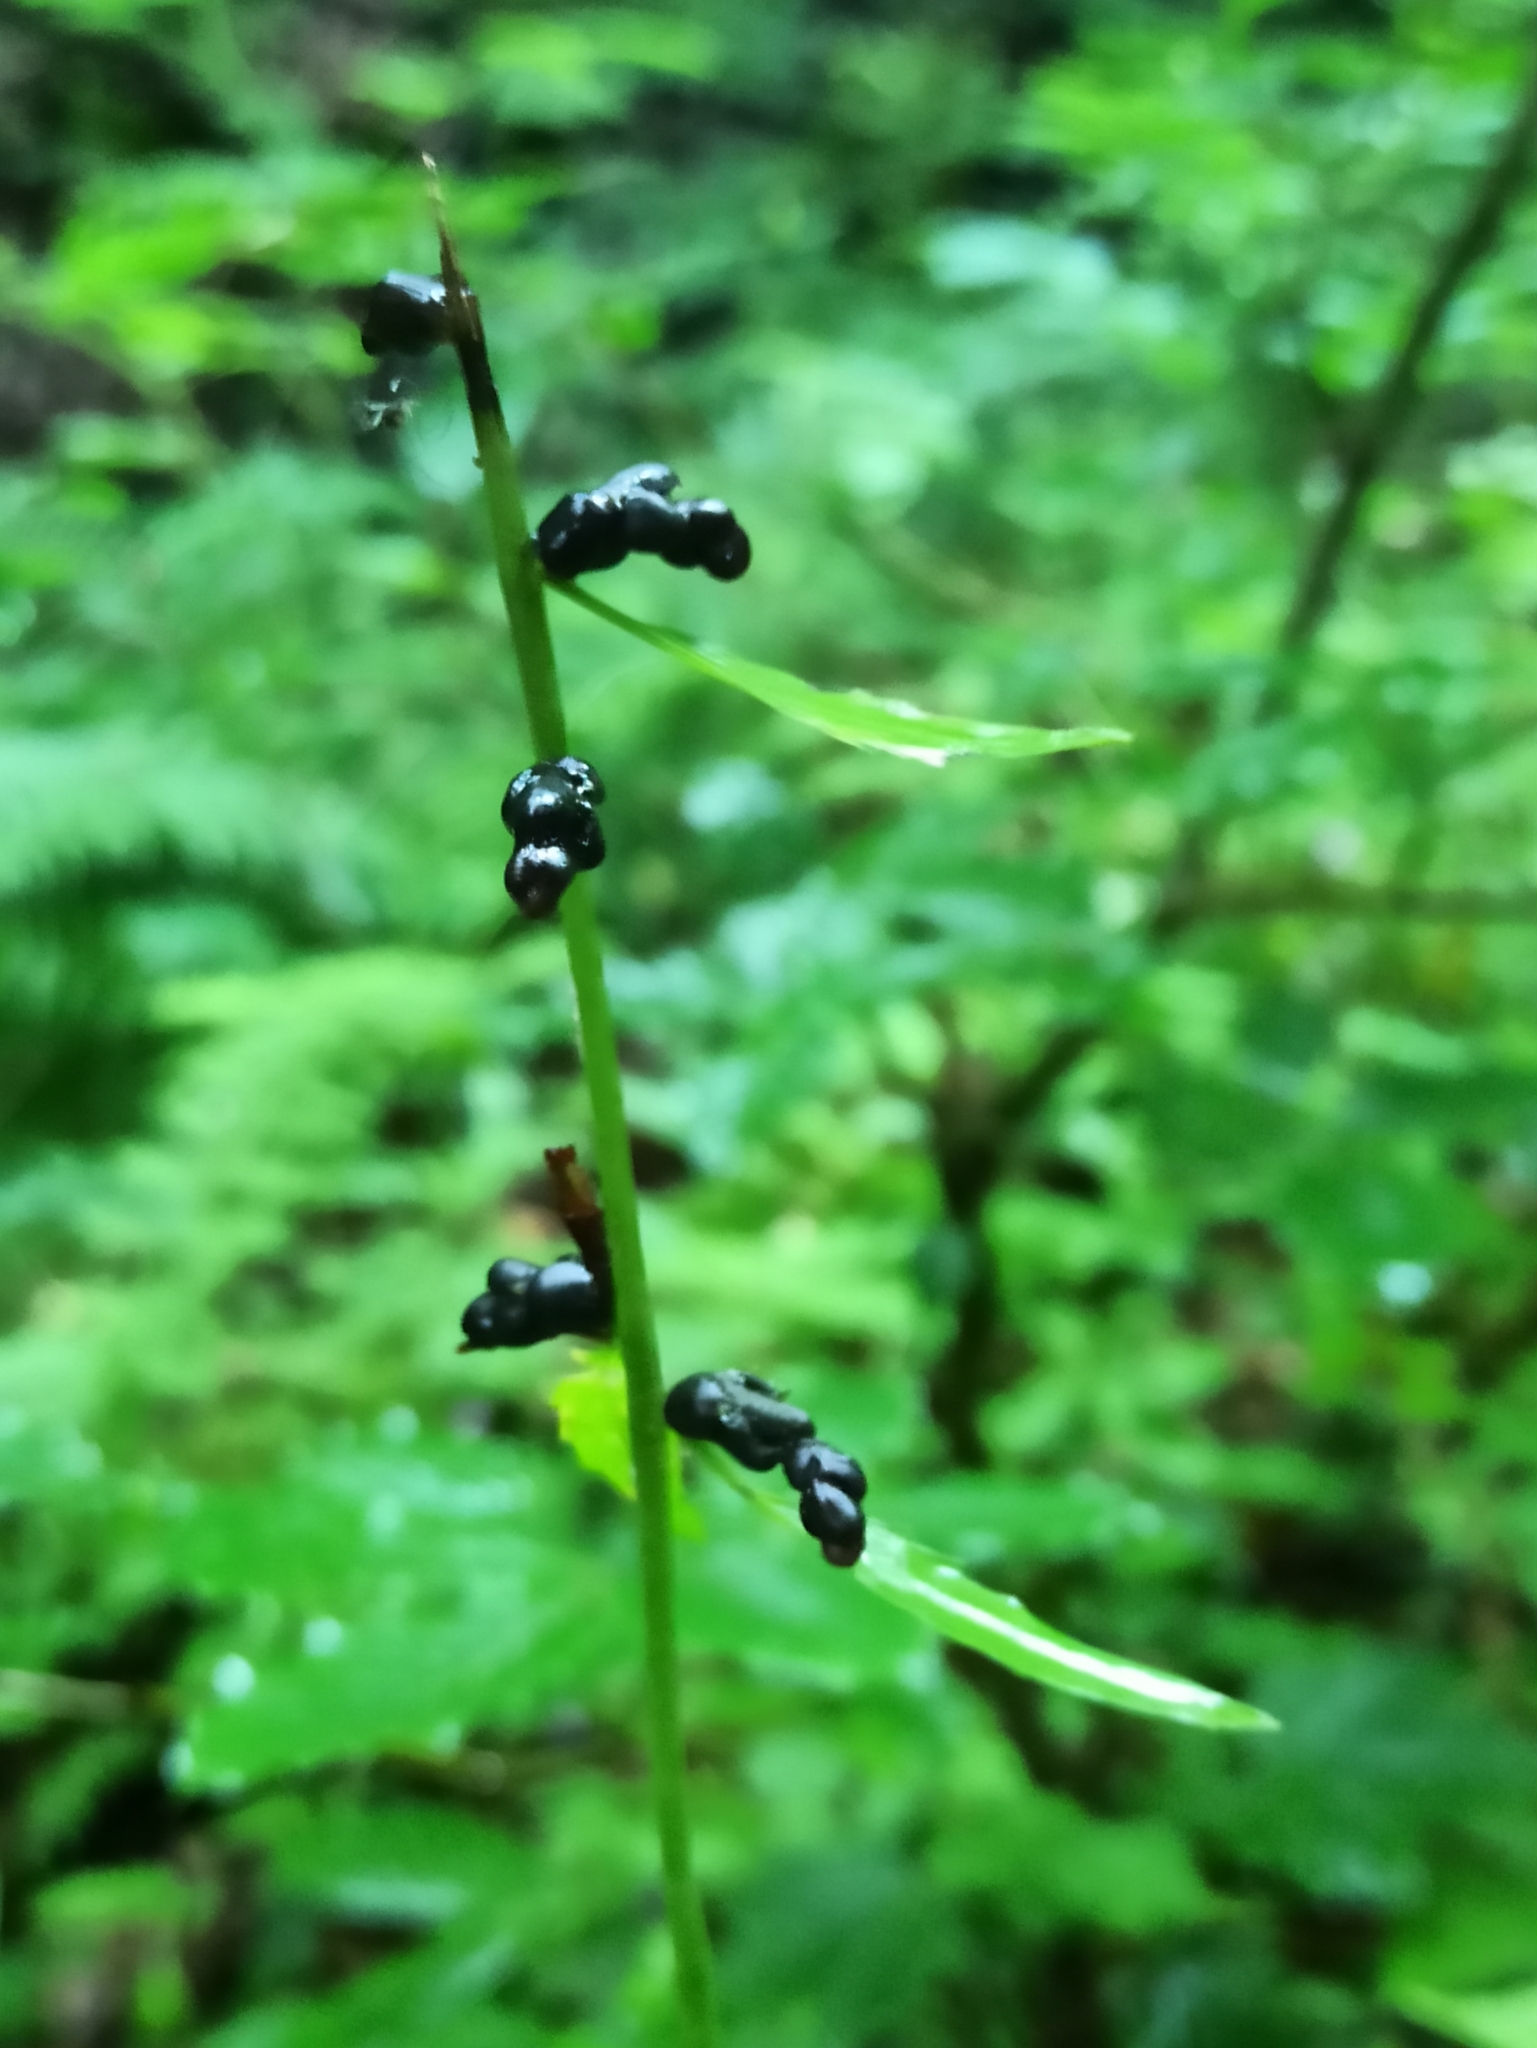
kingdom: Plantae
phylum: Tracheophyta
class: Magnoliopsida
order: Brassicales
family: Brassicaceae
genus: Cardamine
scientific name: Cardamine bulbifera
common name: Coralroot bittercress
